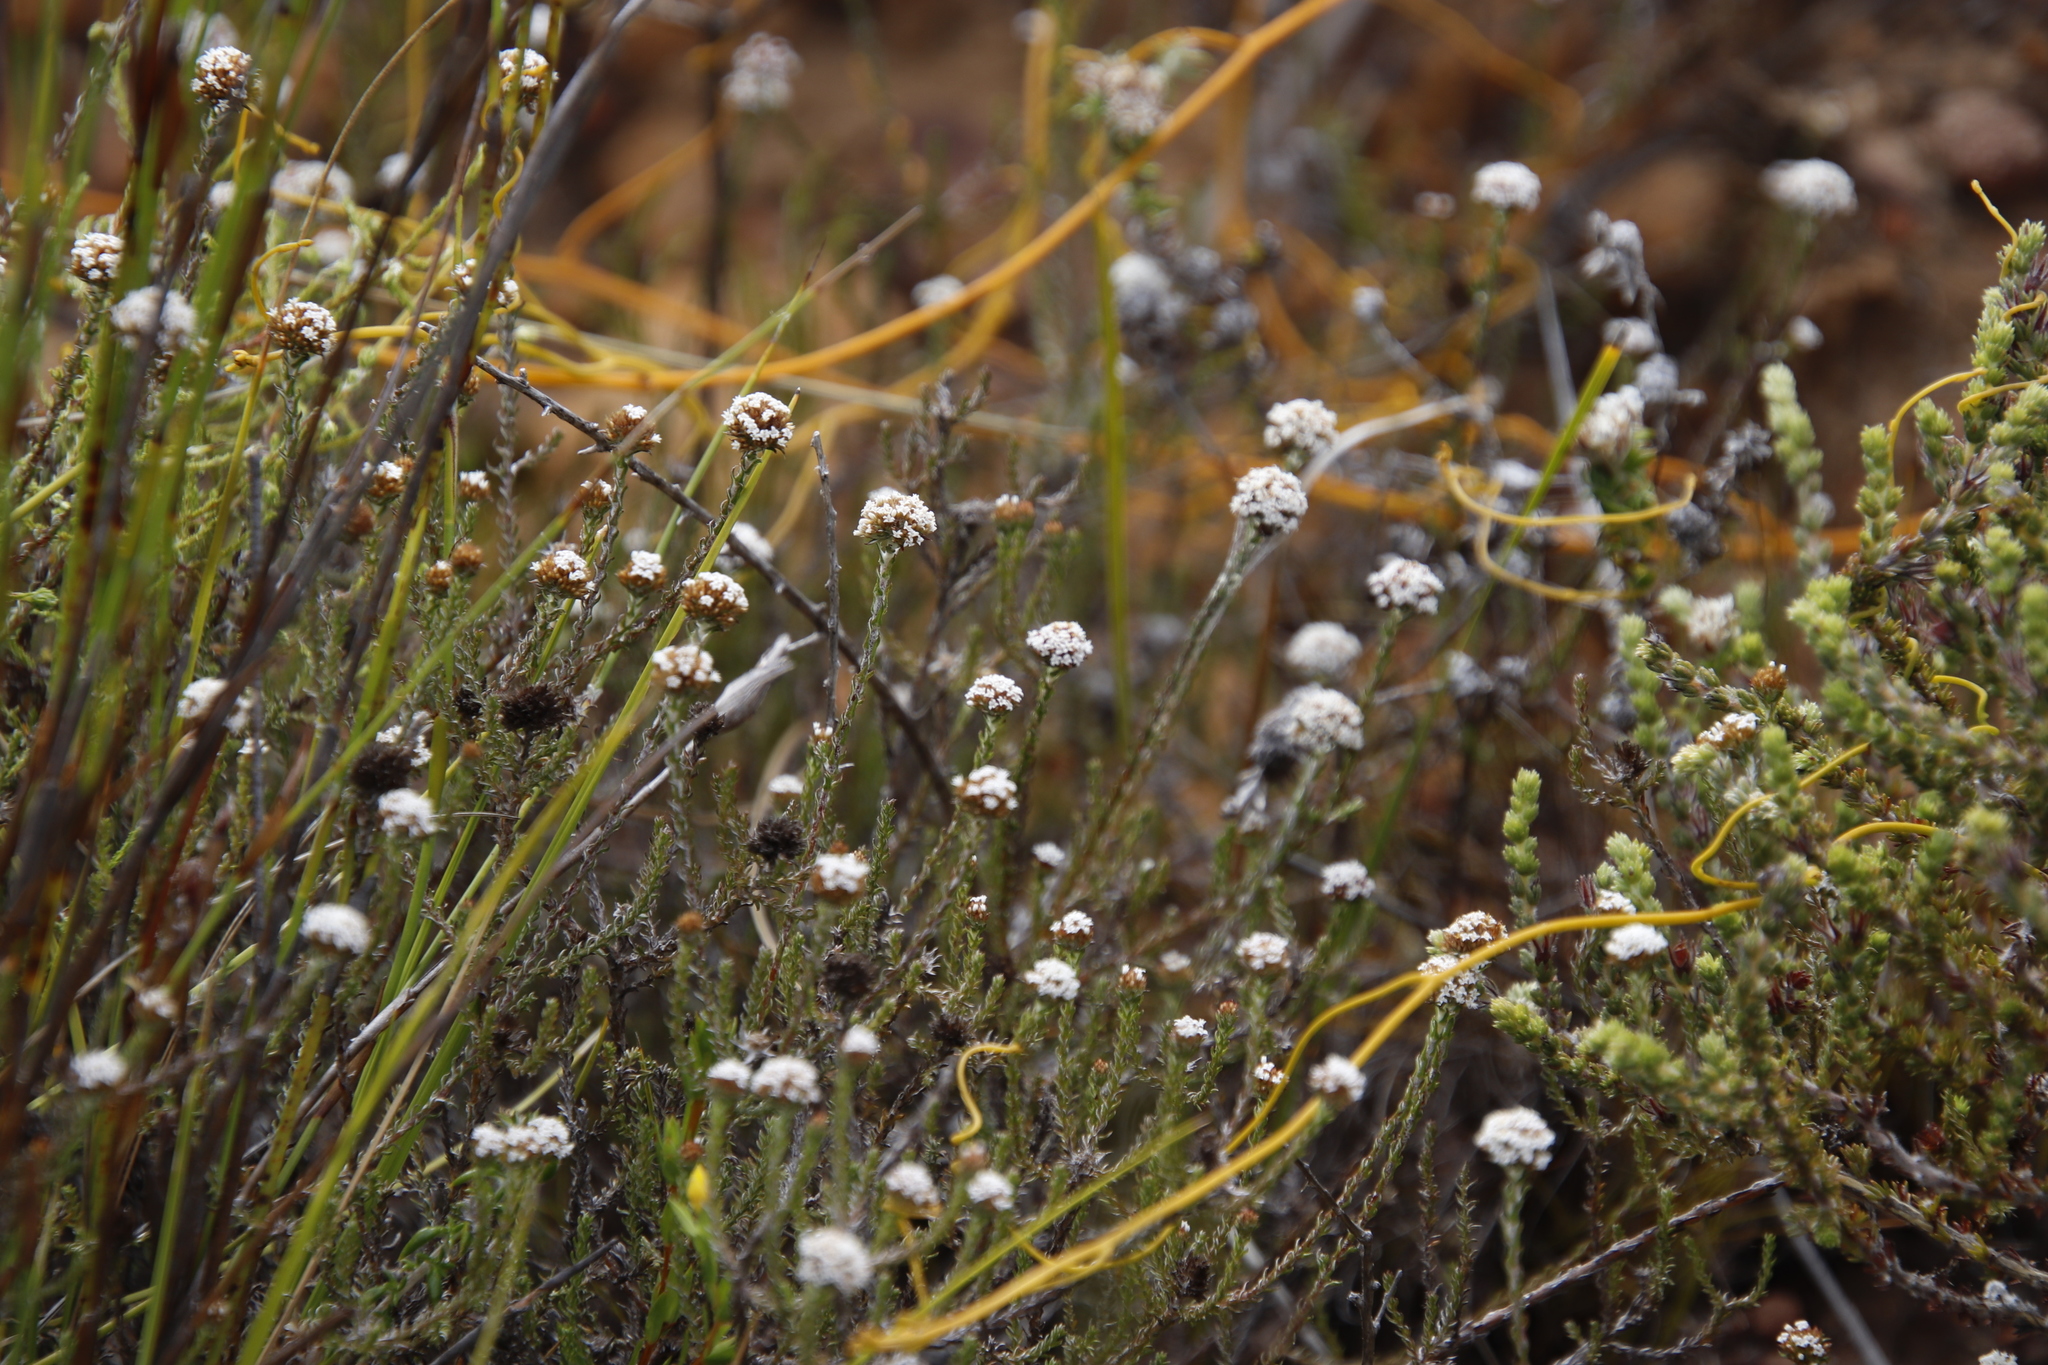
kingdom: Plantae
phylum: Tracheophyta
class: Magnoliopsida
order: Asterales
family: Asteraceae
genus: Stoebe
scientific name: Stoebe capitata
